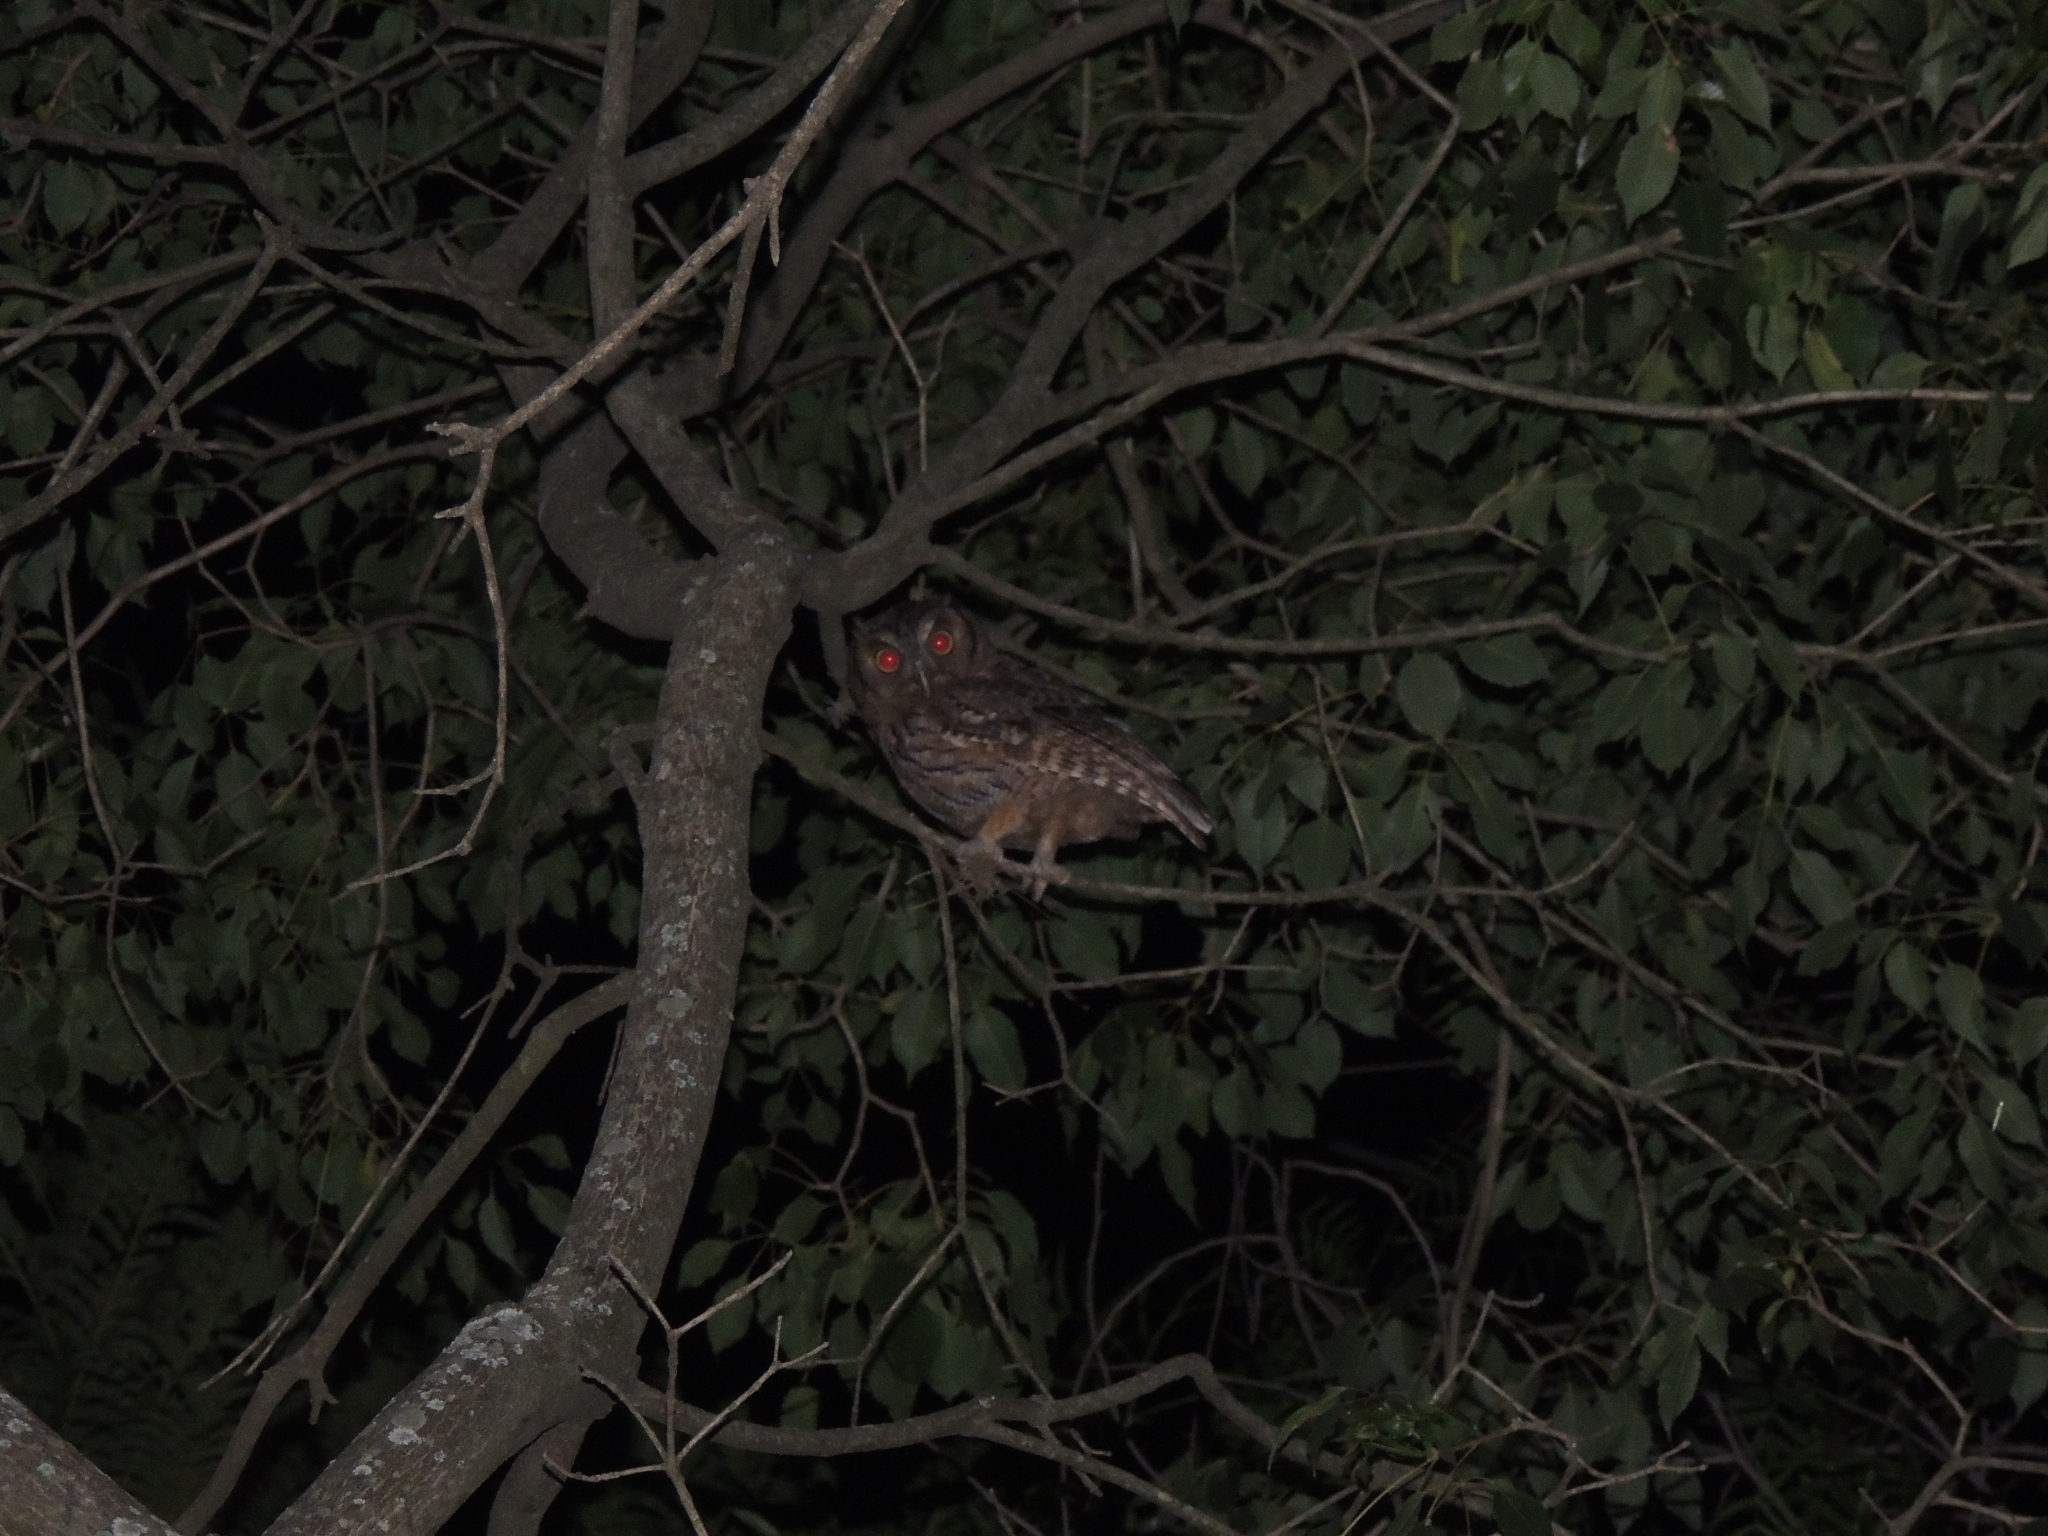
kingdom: Animalia
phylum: Chordata
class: Aves
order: Strigiformes
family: Strigidae
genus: Megascops
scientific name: Megascops choliba
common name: Tropical screech-owl
